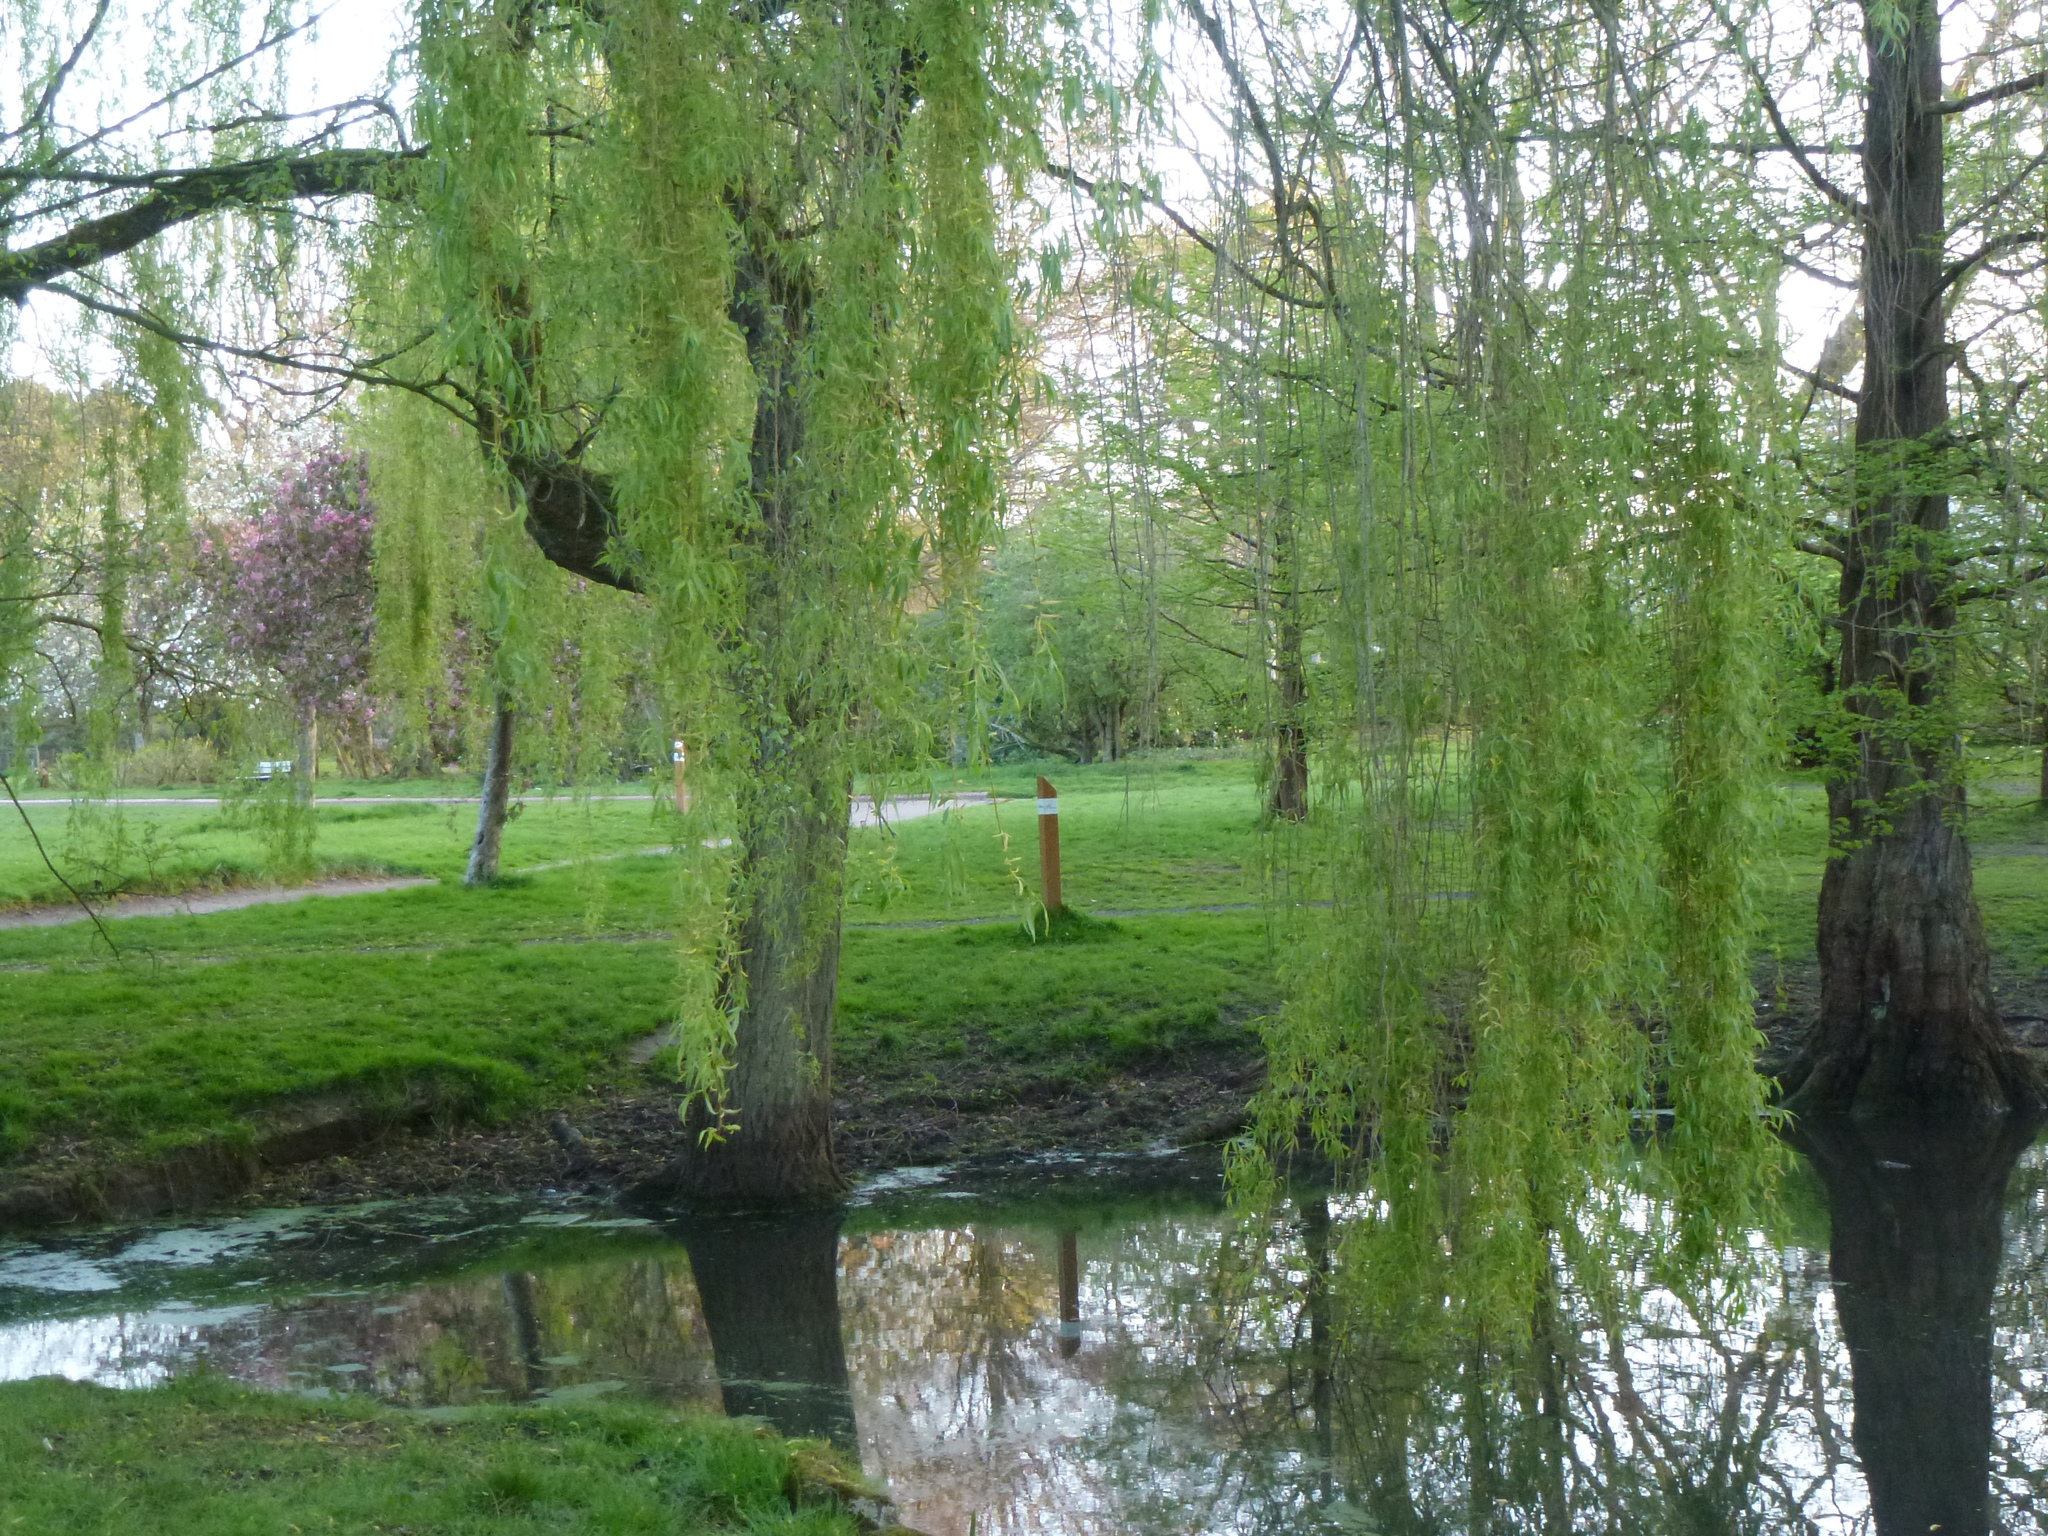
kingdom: Plantae
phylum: Tracheophyta
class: Magnoliopsida
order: Malpighiales
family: Salicaceae
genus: Salix
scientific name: Salix pendulina
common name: Wisconsin weeping willow
